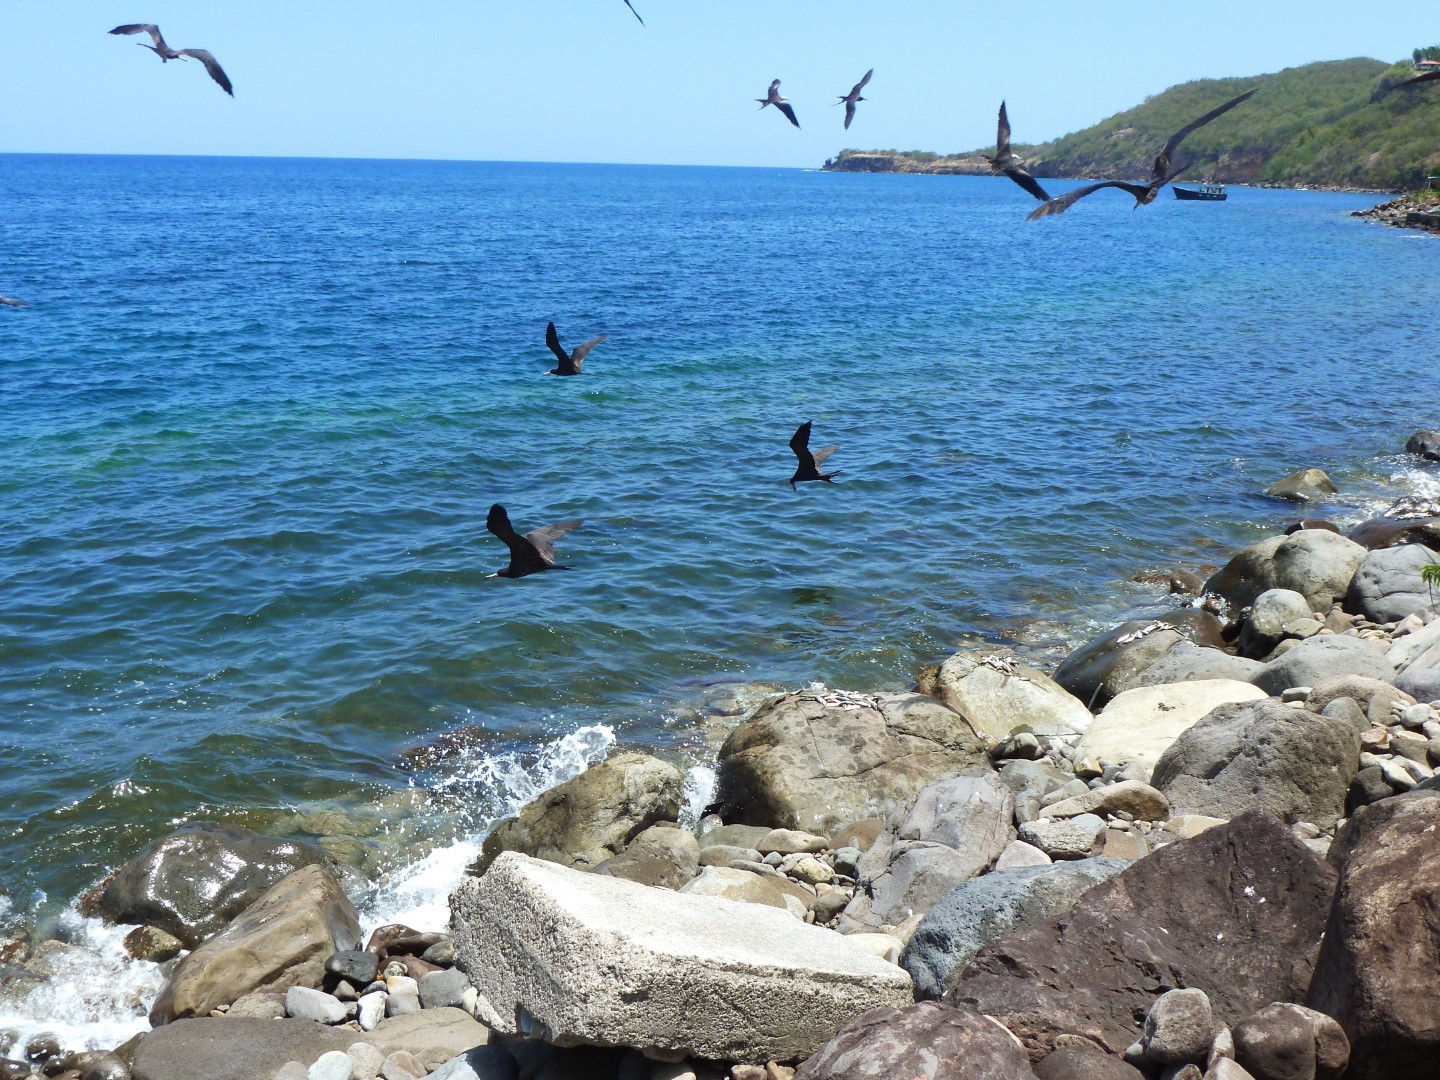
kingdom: Animalia
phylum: Chordata
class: Aves
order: Suliformes
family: Fregatidae
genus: Fregata
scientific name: Fregata magnificens
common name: Magnificent frigatebird
